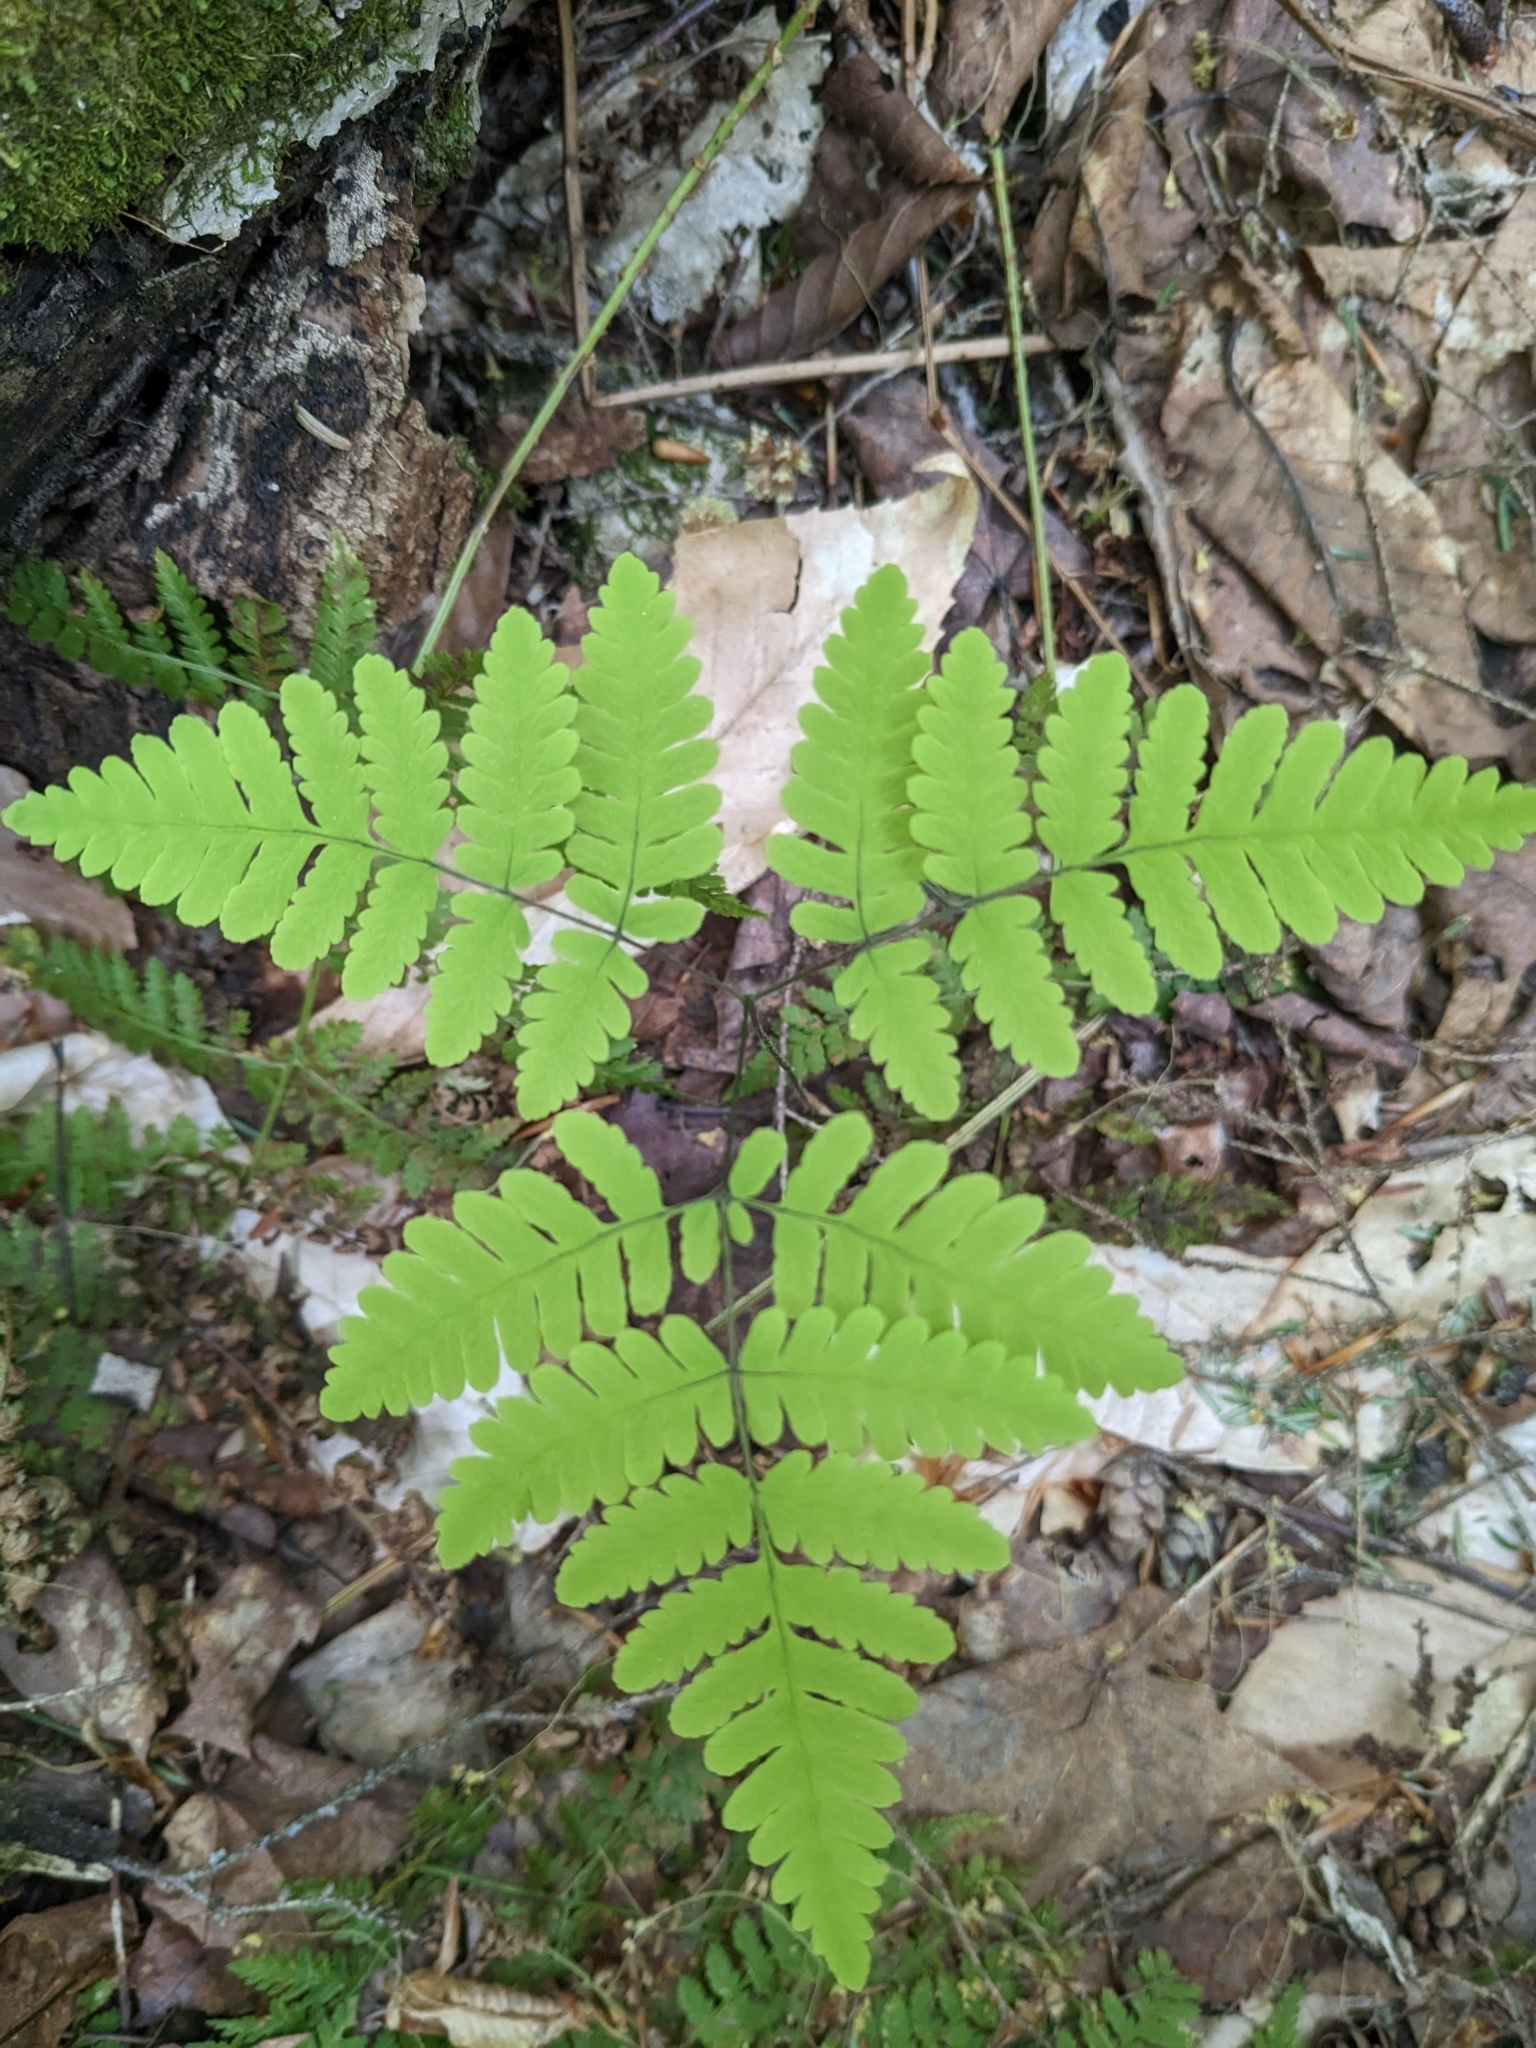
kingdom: Plantae
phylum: Tracheophyta
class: Polypodiopsida
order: Polypodiales
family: Cystopteridaceae
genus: Gymnocarpium
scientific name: Gymnocarpium dryopteris
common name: Oak fern
